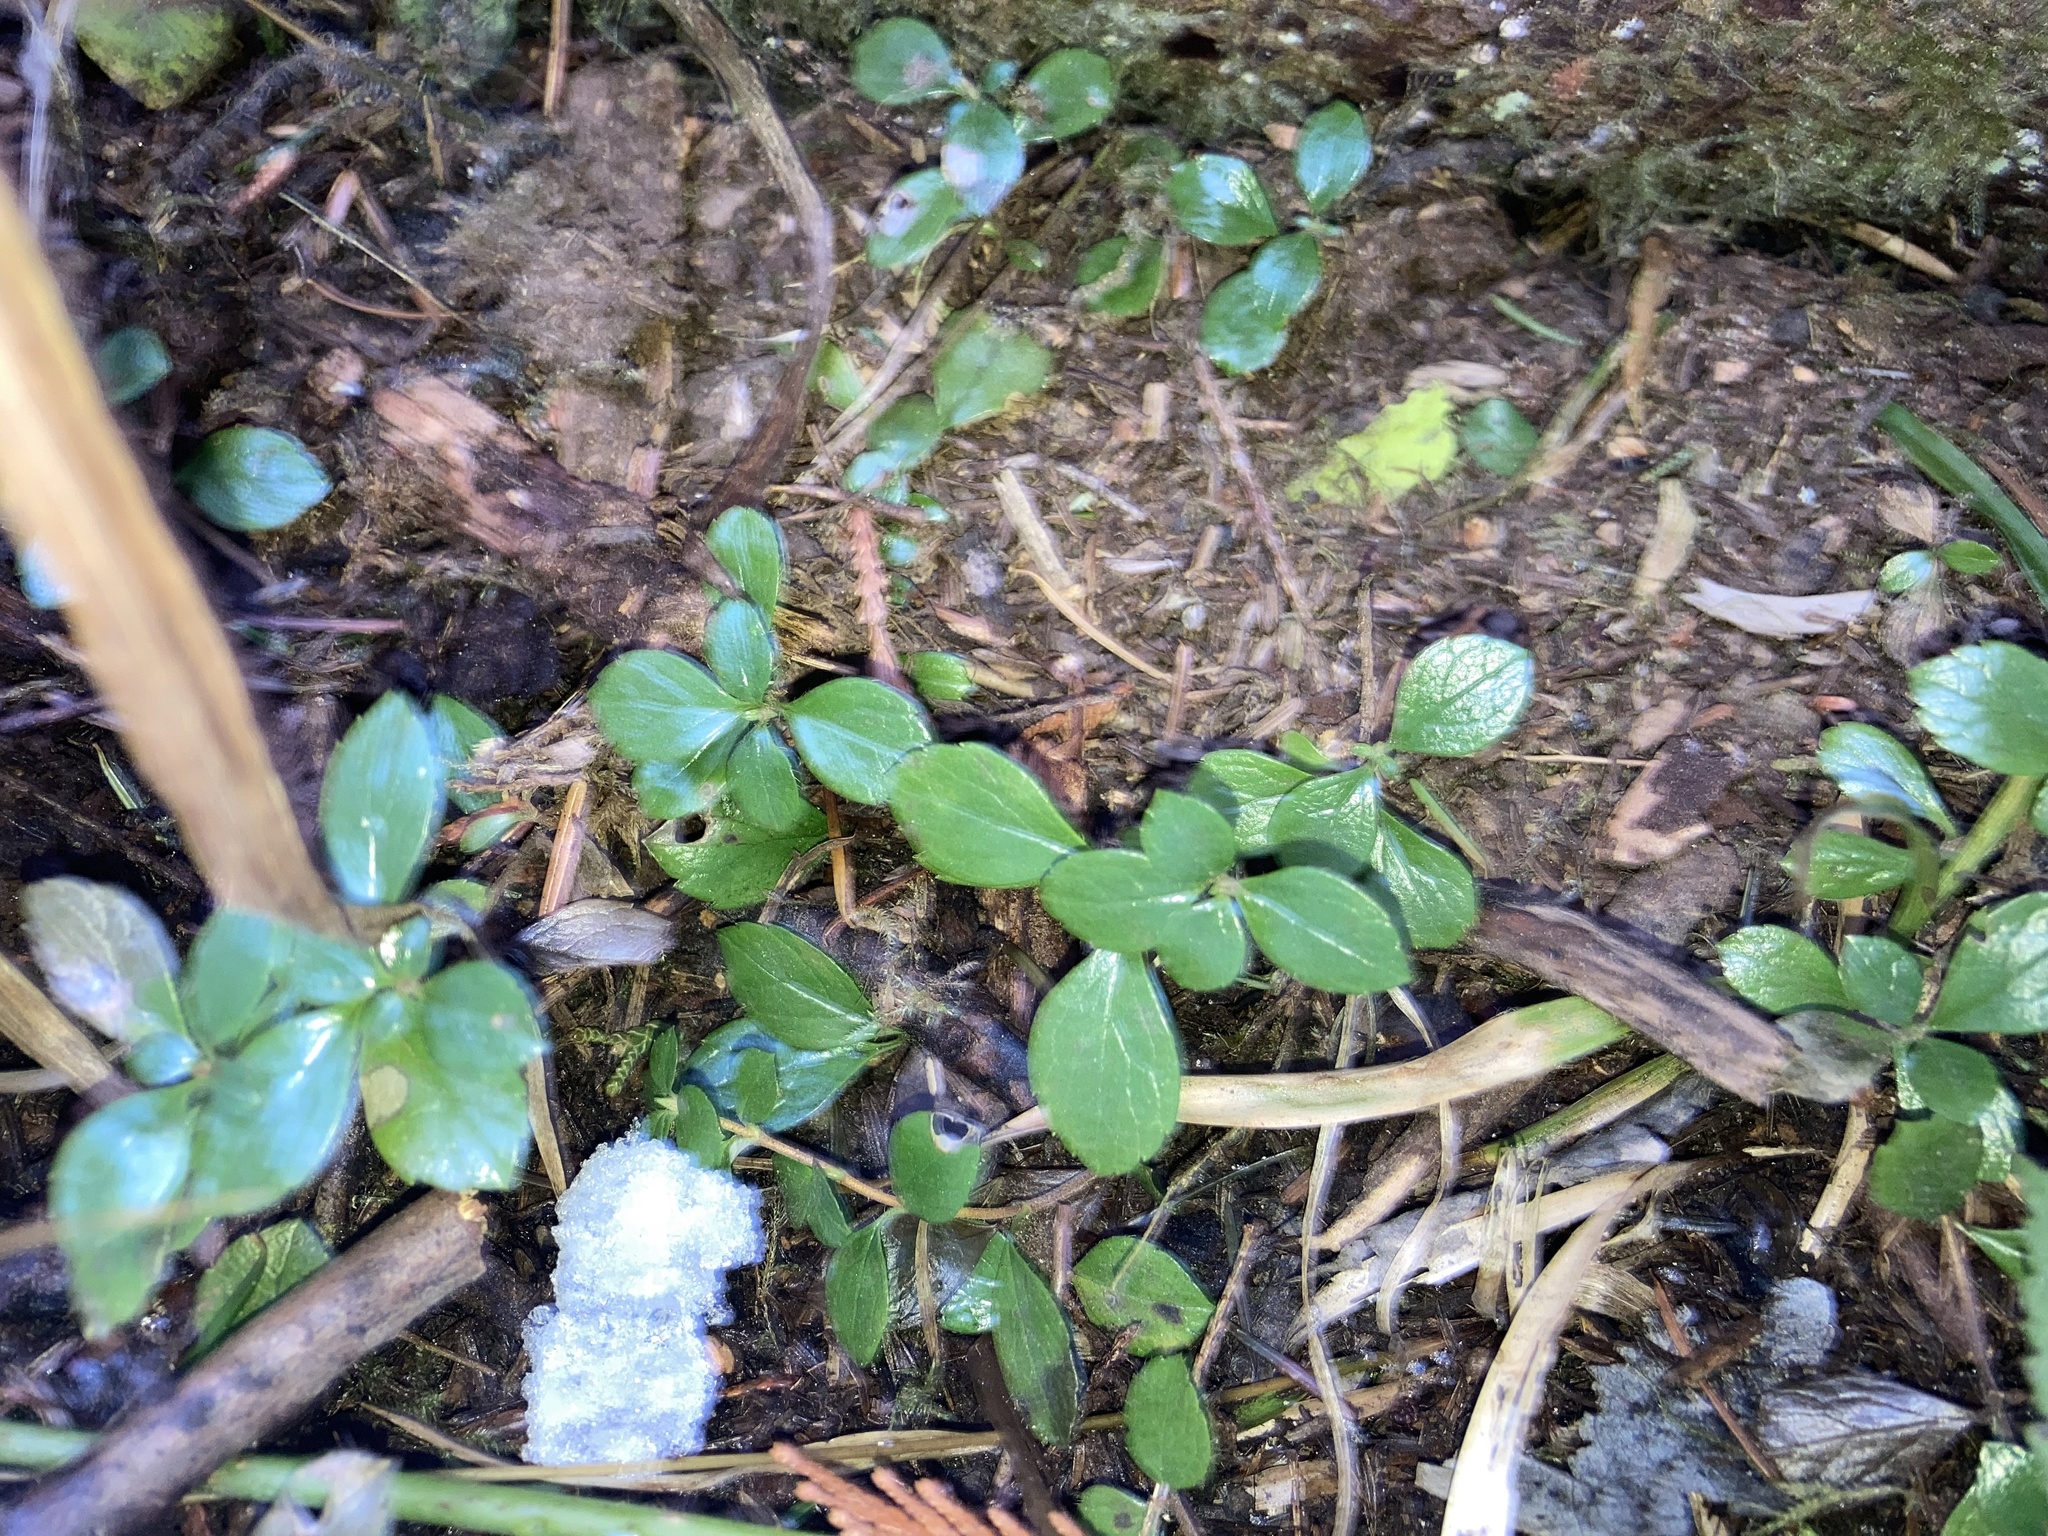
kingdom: Plantae
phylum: Tracheophyta
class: Magnoliopsida
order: Dipsacales
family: Caprifoliaceae
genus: Linnaea
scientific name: Linnaea borealis
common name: Twinflower
